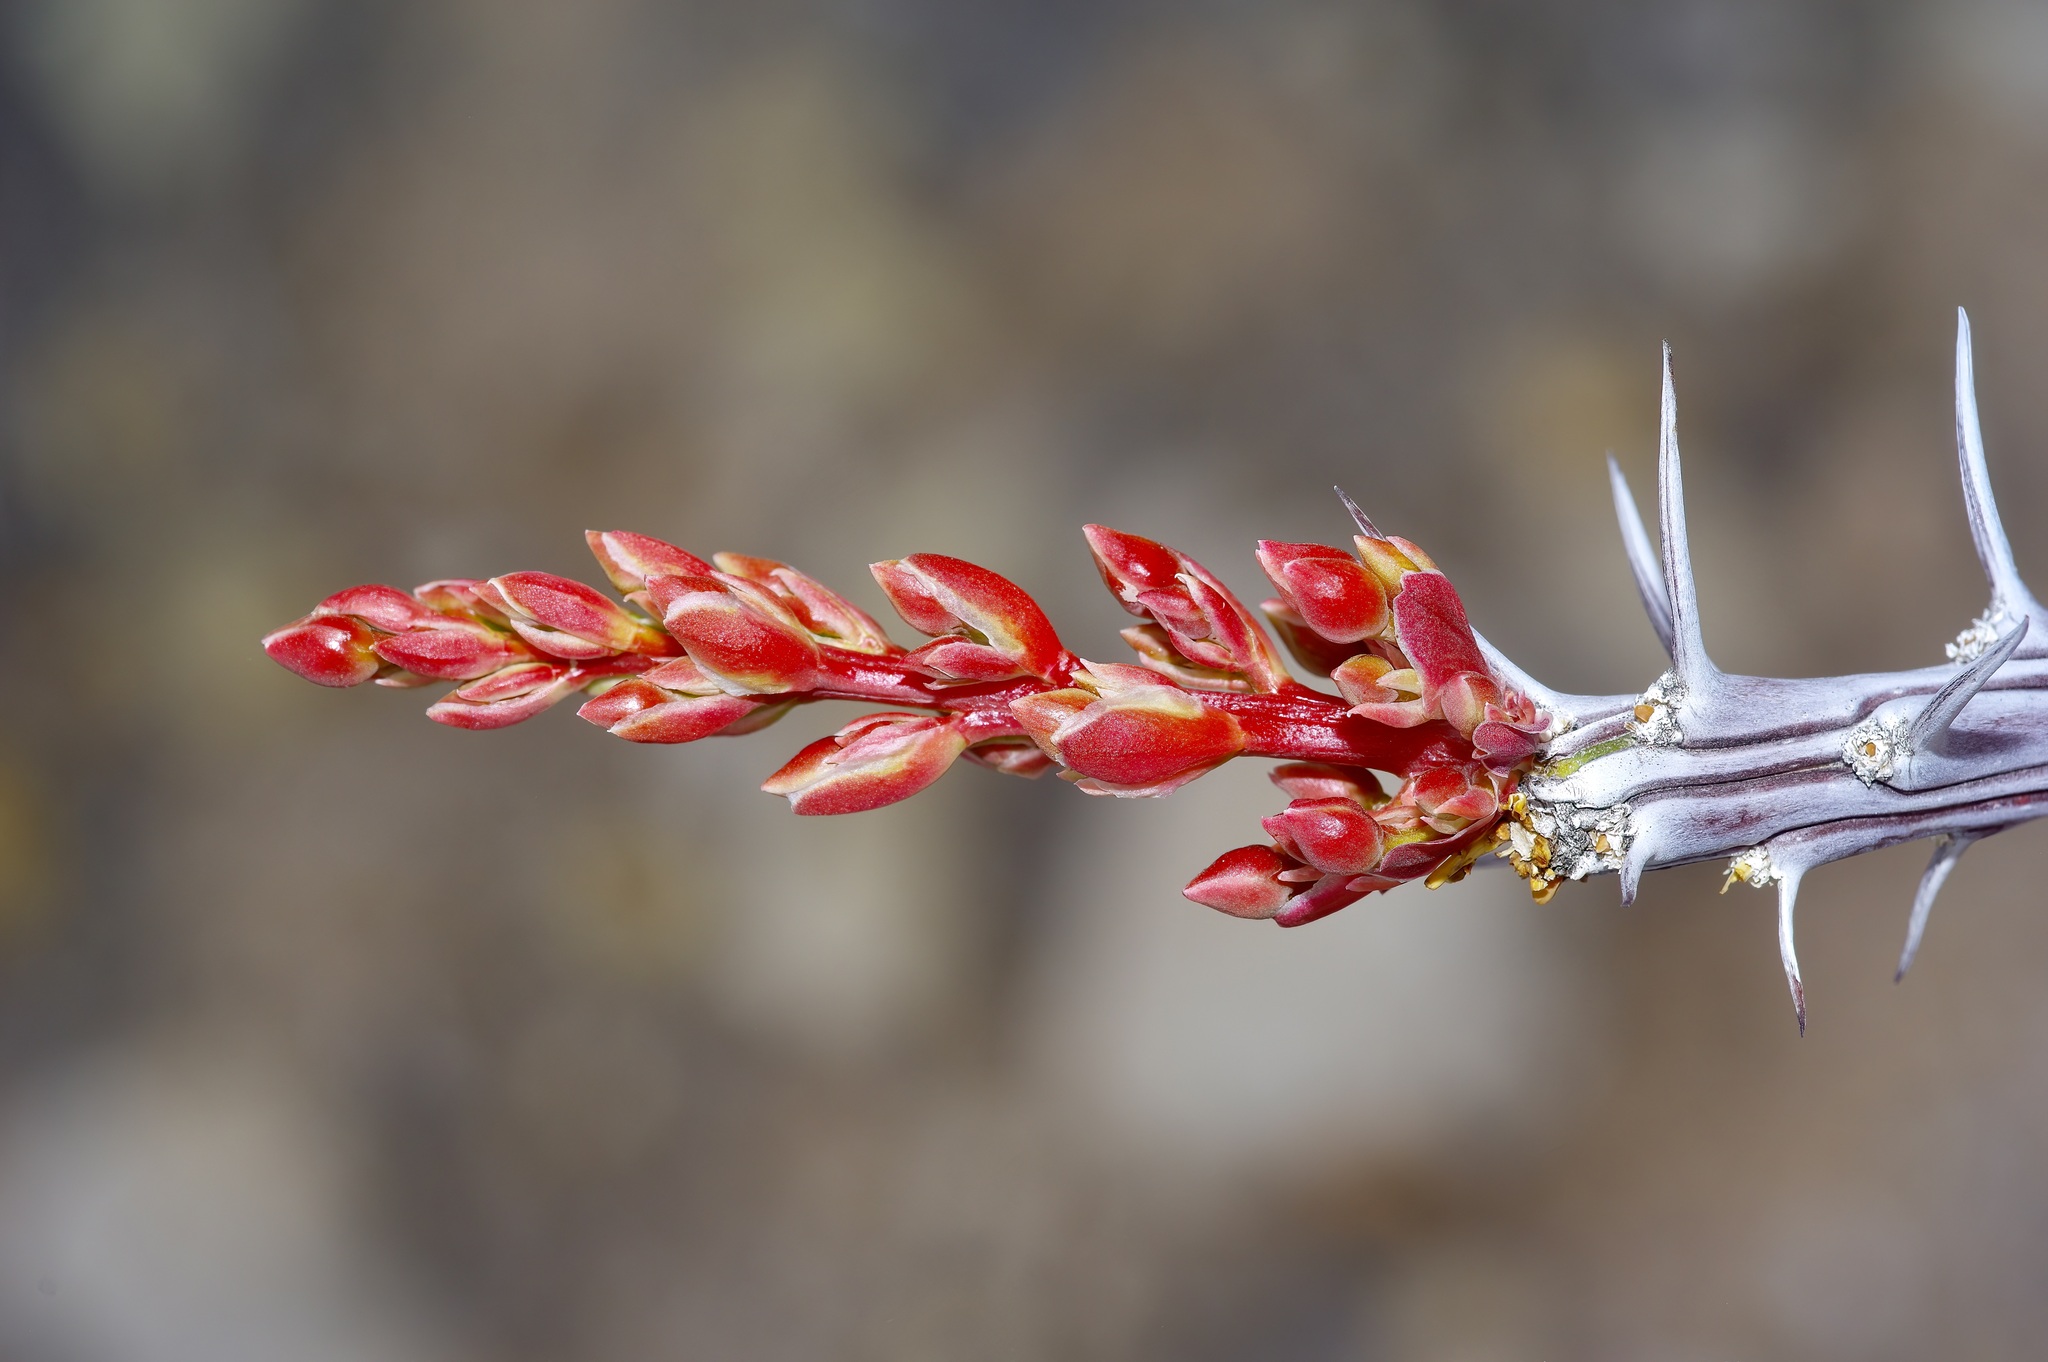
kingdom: Plantae
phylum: Tracheophyta
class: Magnoliopsida
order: Ericales
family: Fouquieriaceae
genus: Fouquieria
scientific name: Fouquieria splendens
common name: Vine-cactus
